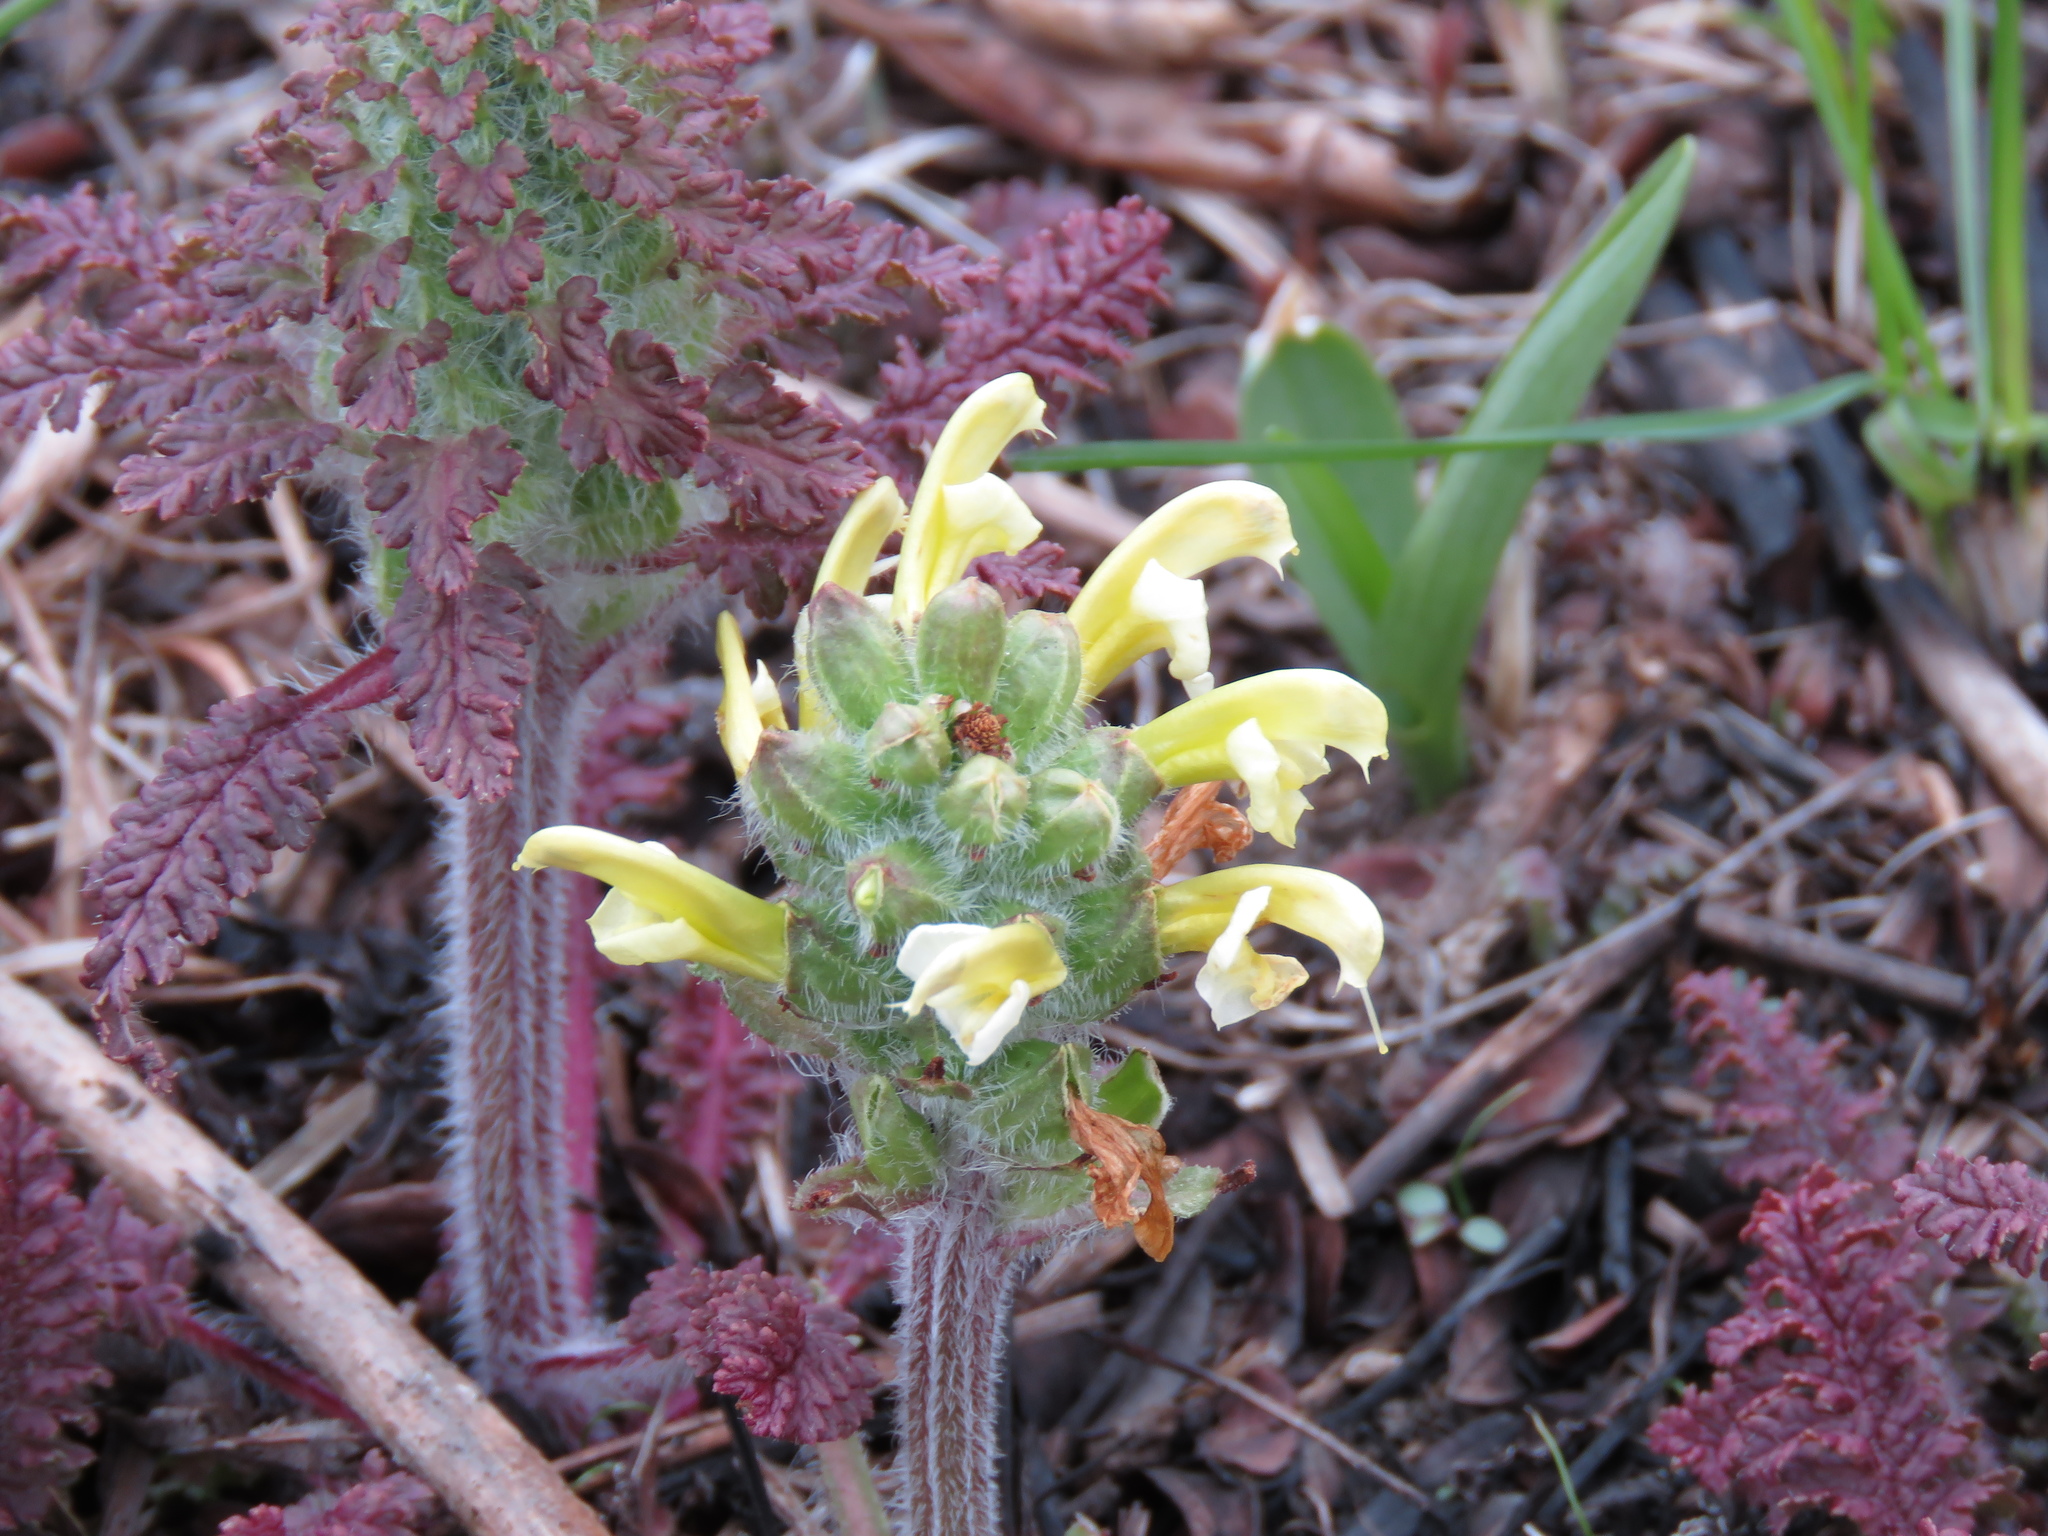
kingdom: Plantae
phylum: Tracheophyta
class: Magnoliopsida
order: Lamiales
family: Orobanchaceae
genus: Pedicularis
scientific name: Pedicularis canadensis
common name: Early lousewort
